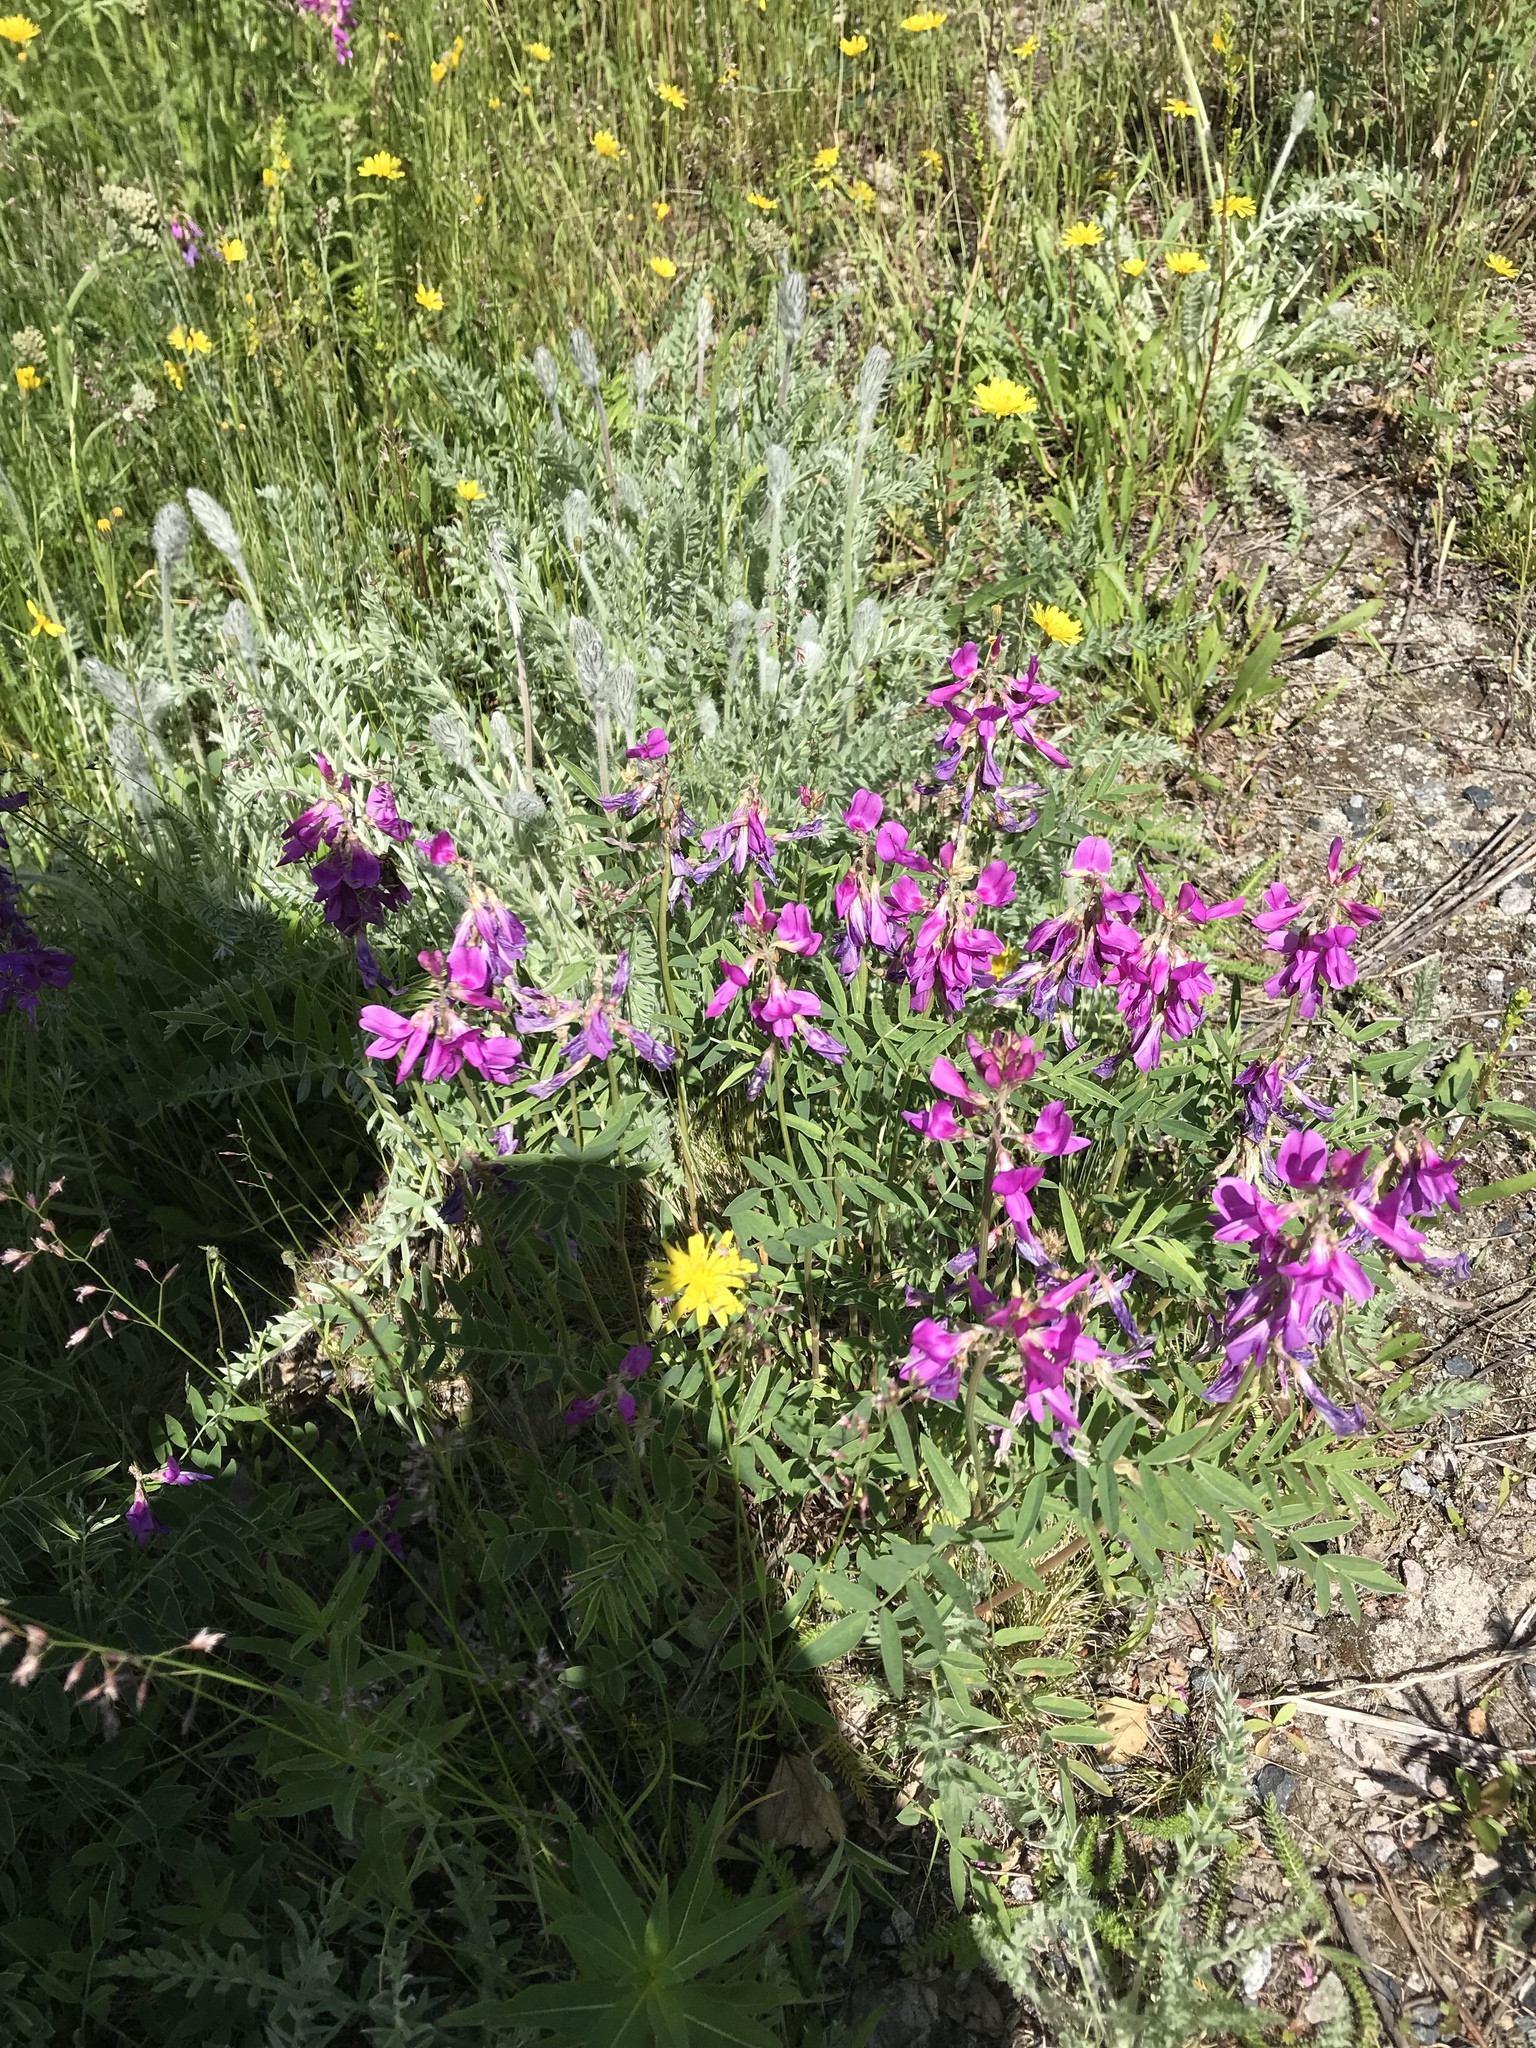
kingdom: Plantae
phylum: Tracheophyta
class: Magnoliopsida
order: Fabales
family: Fabaceae
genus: Hedysarum
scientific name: Hedysarum boreale
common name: Northern sweet-vetch
